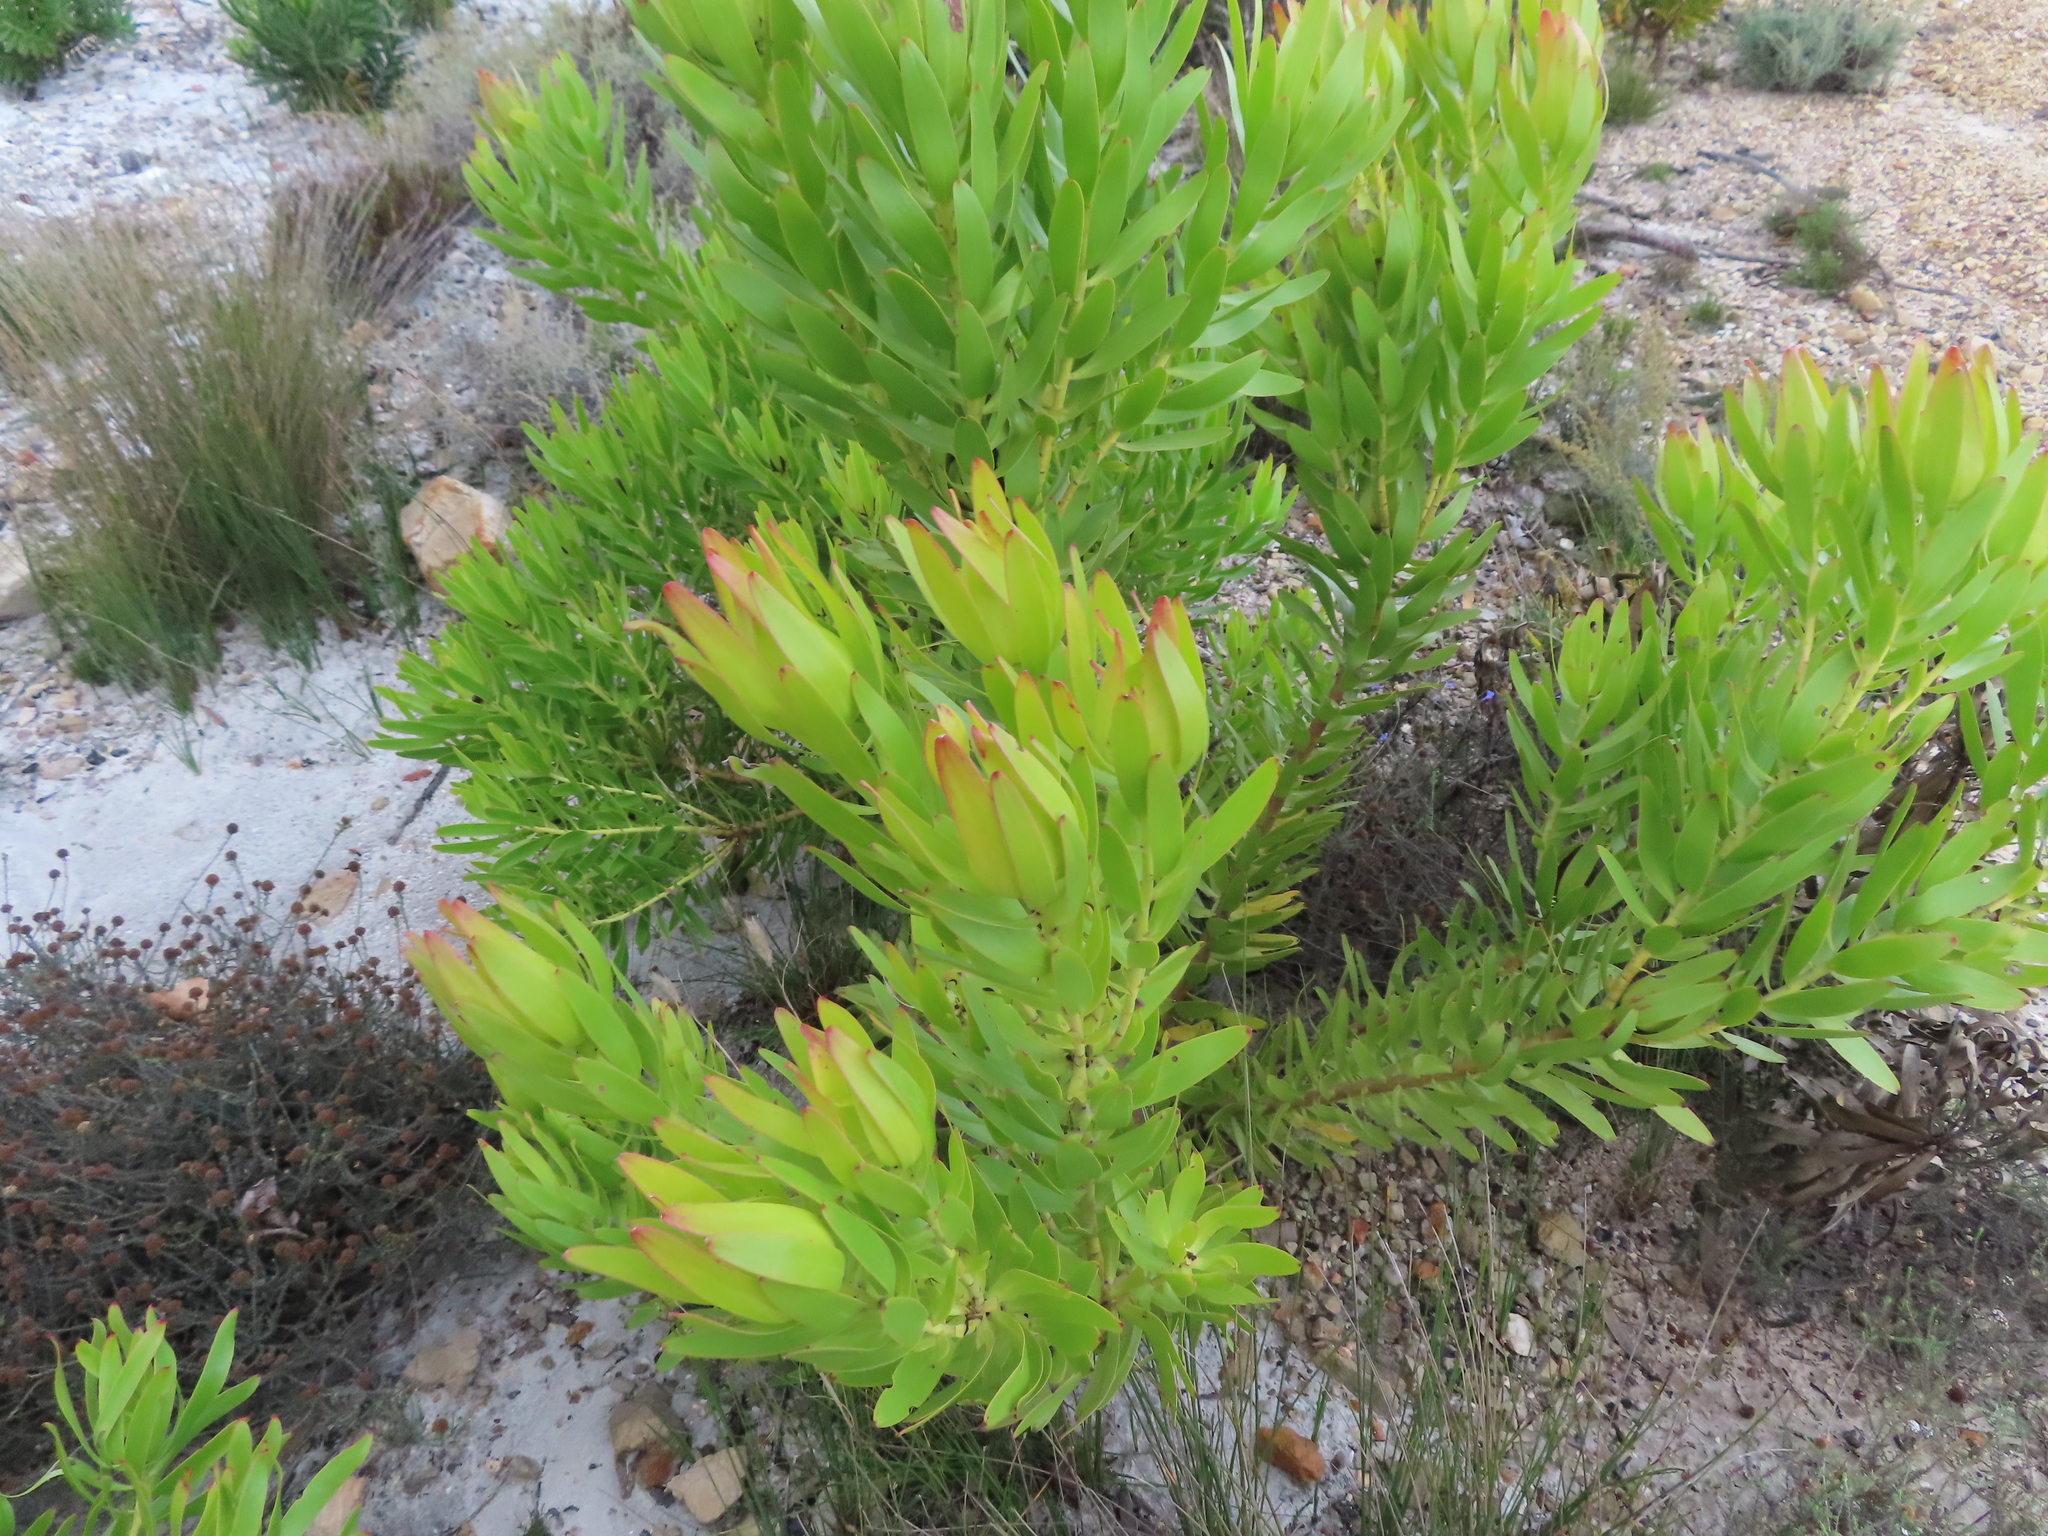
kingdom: Plantae
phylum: Tracheophyta
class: Magnoliopsida
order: Proteales
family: Proteaceae
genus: Leucadendron
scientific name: Leucadendron microcephalum
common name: Oilbract conebush
